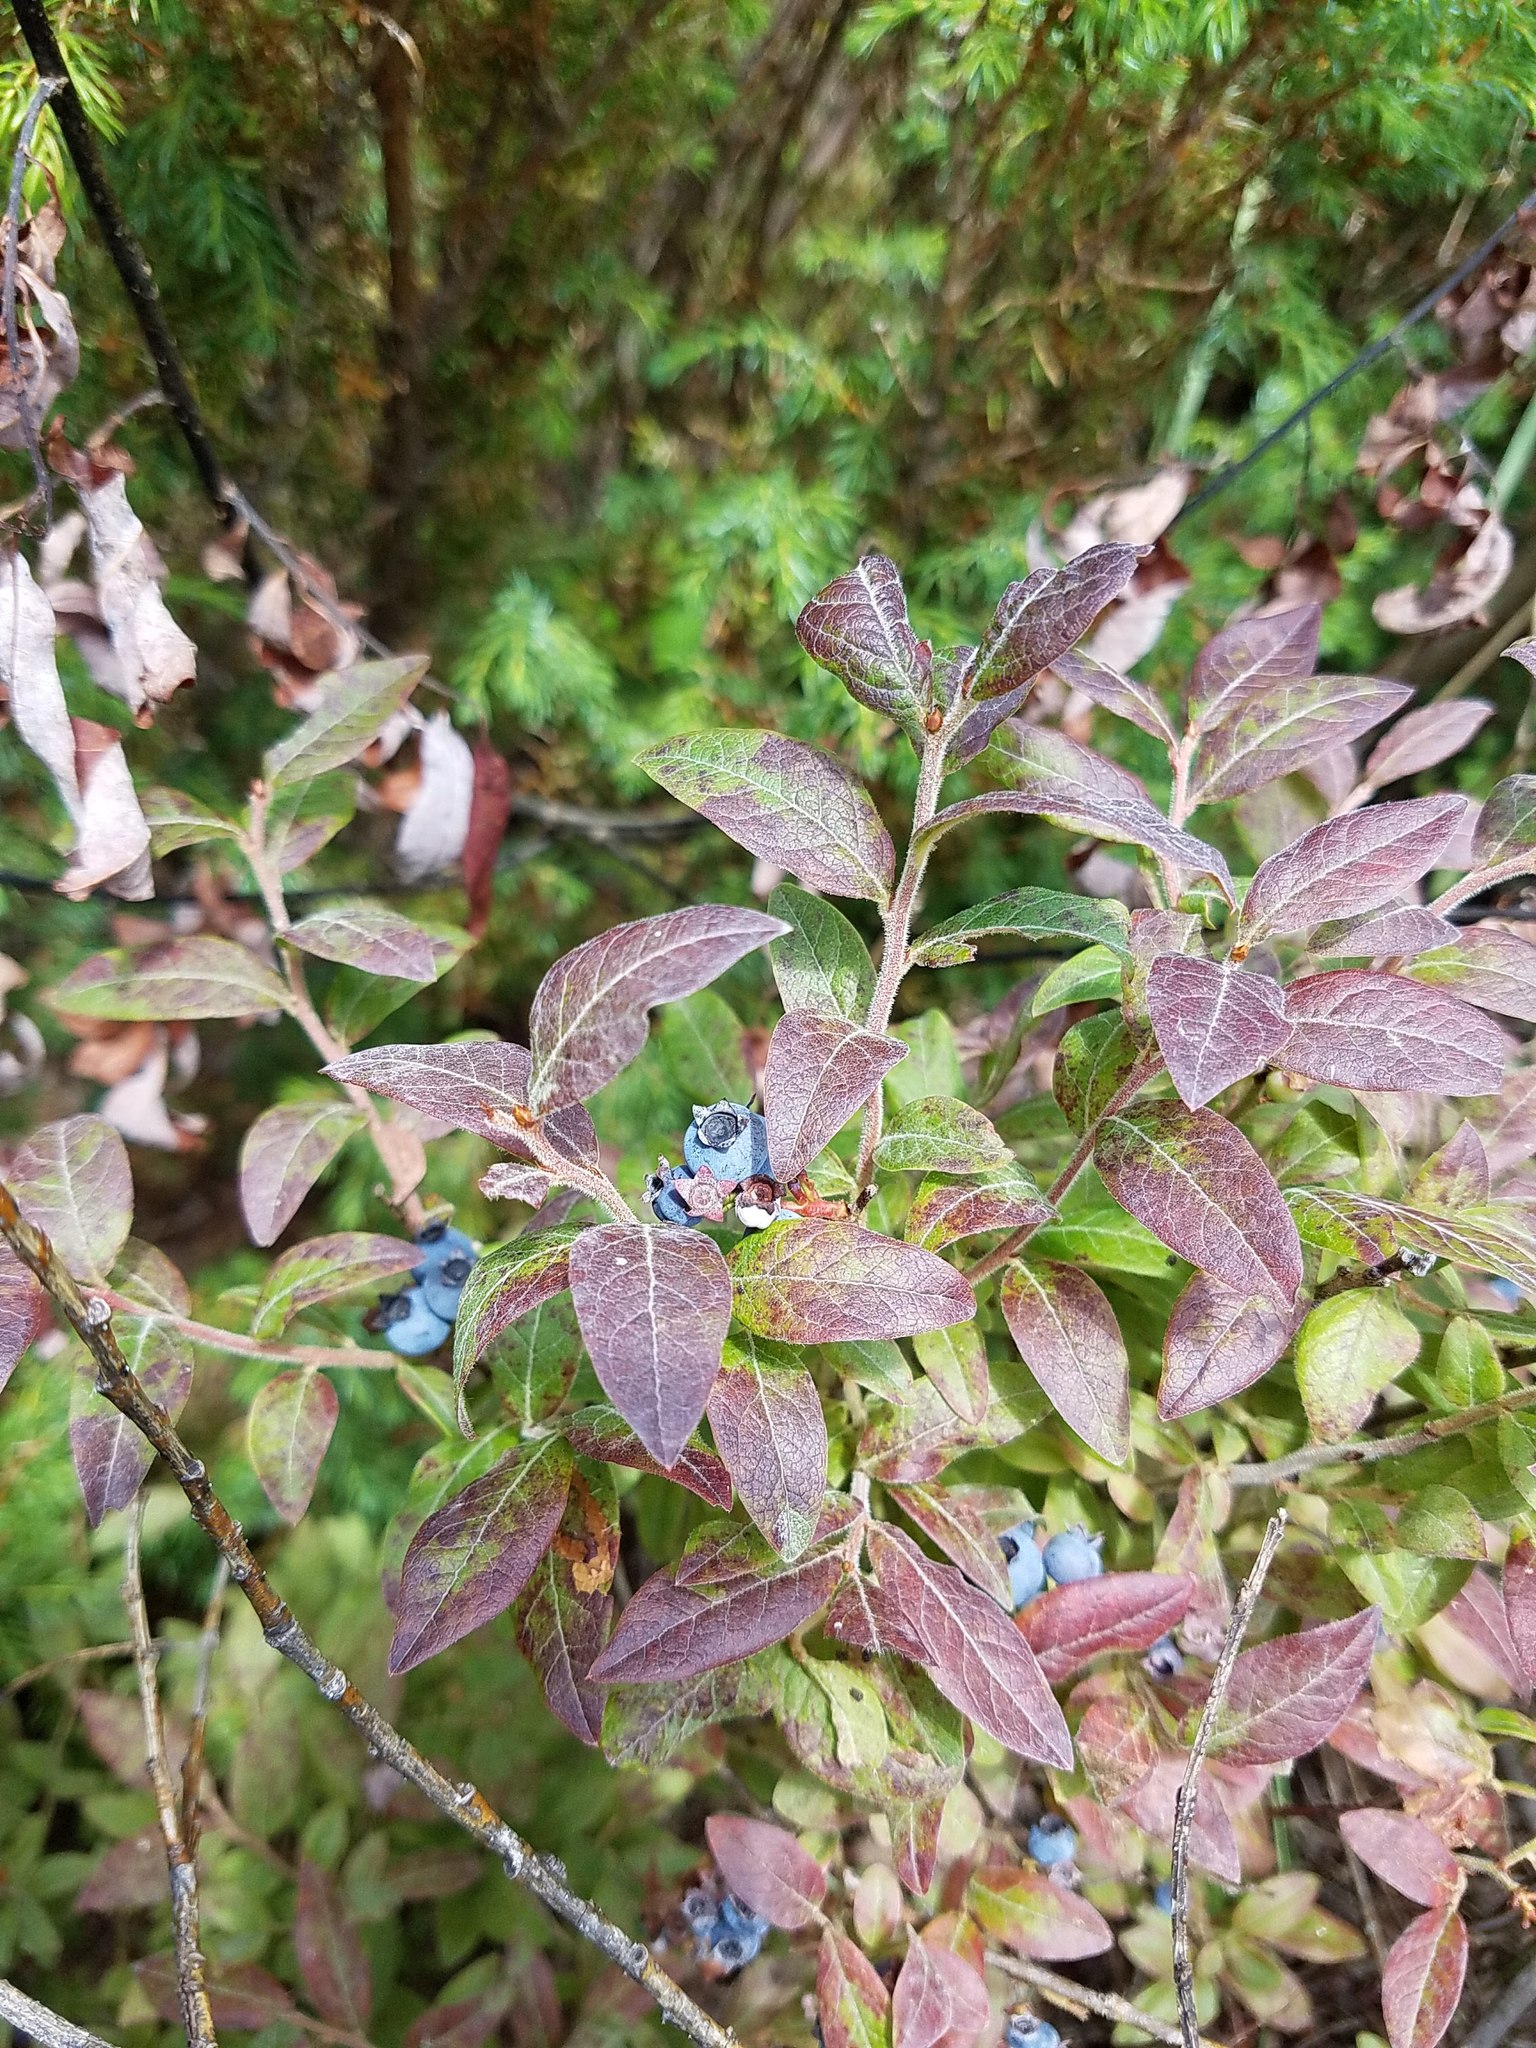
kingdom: Plantae
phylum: Tracheophyta
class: Magnoliopsida
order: Ericales
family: Ericaceae
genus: Vaccinium
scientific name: Vaccinium myrtilloides
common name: Canada blueberry
